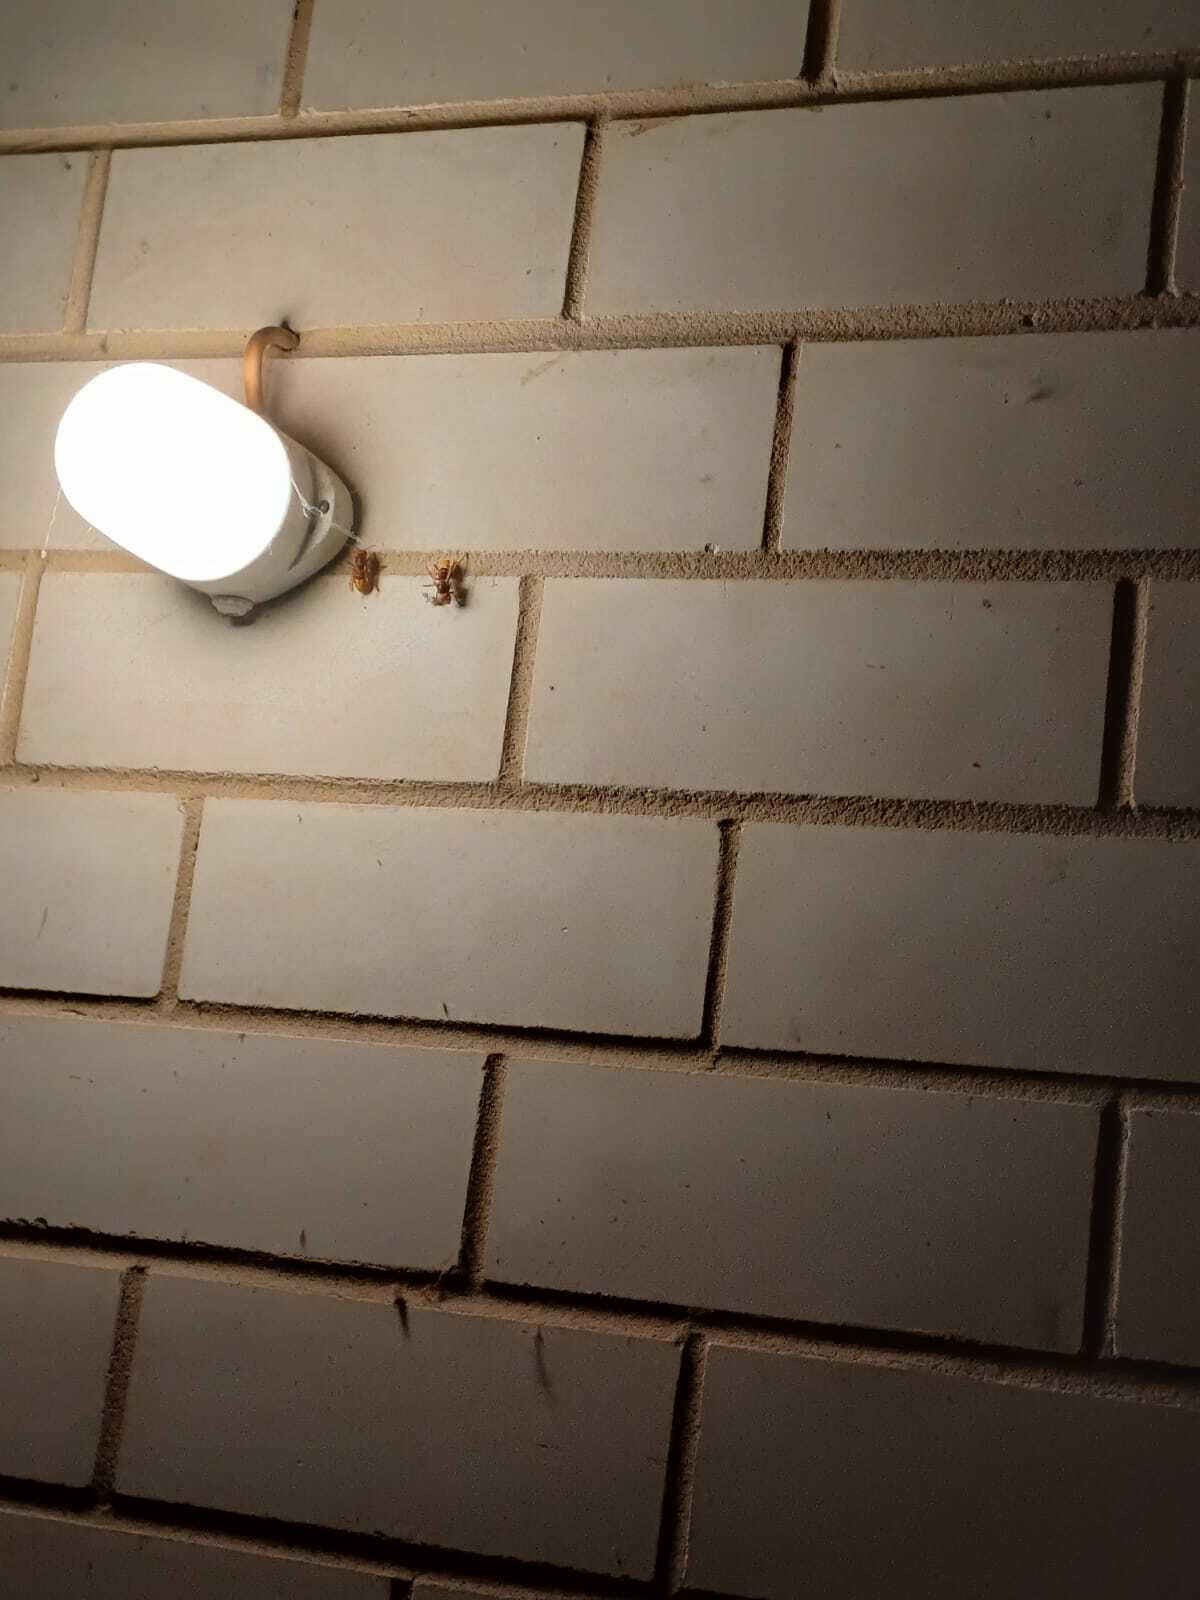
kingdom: Animalia
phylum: Arthropoda
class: Insecta
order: Hymenoptera
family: Vespidae
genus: Vespa
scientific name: Vespa crabro
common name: Hornet
